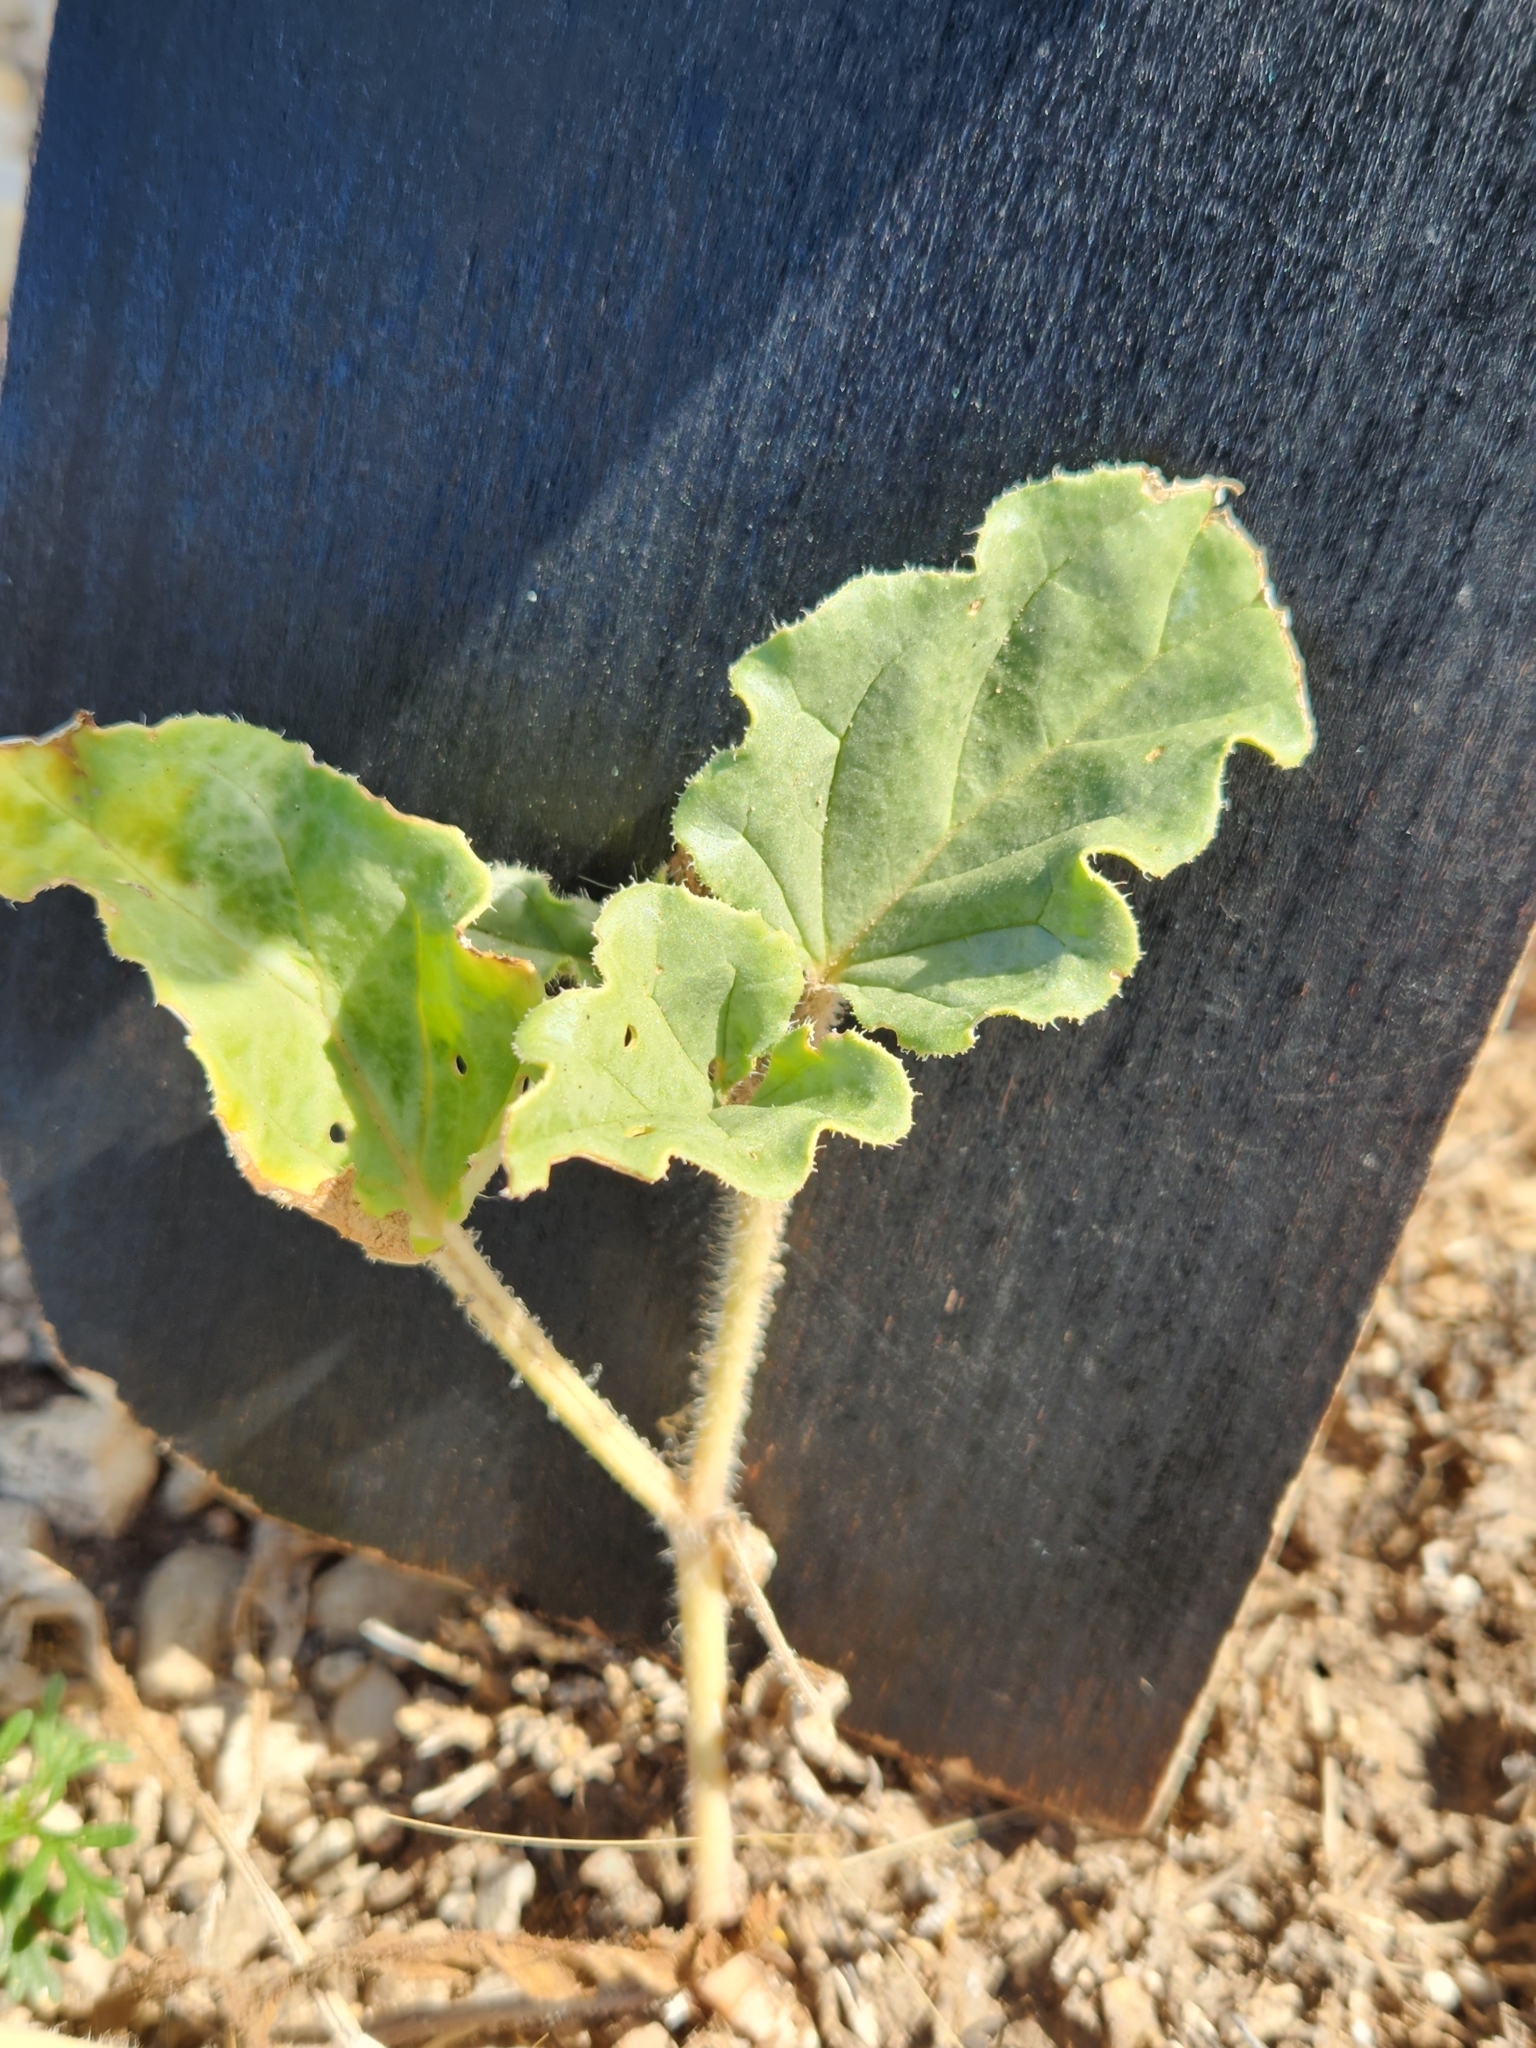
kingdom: Plantae
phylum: Tracheophyta
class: Magnoliopsida
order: Caryophyllales
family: Nyctaginaceae
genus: Nyctaginia
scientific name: Nyctaginia capitata
